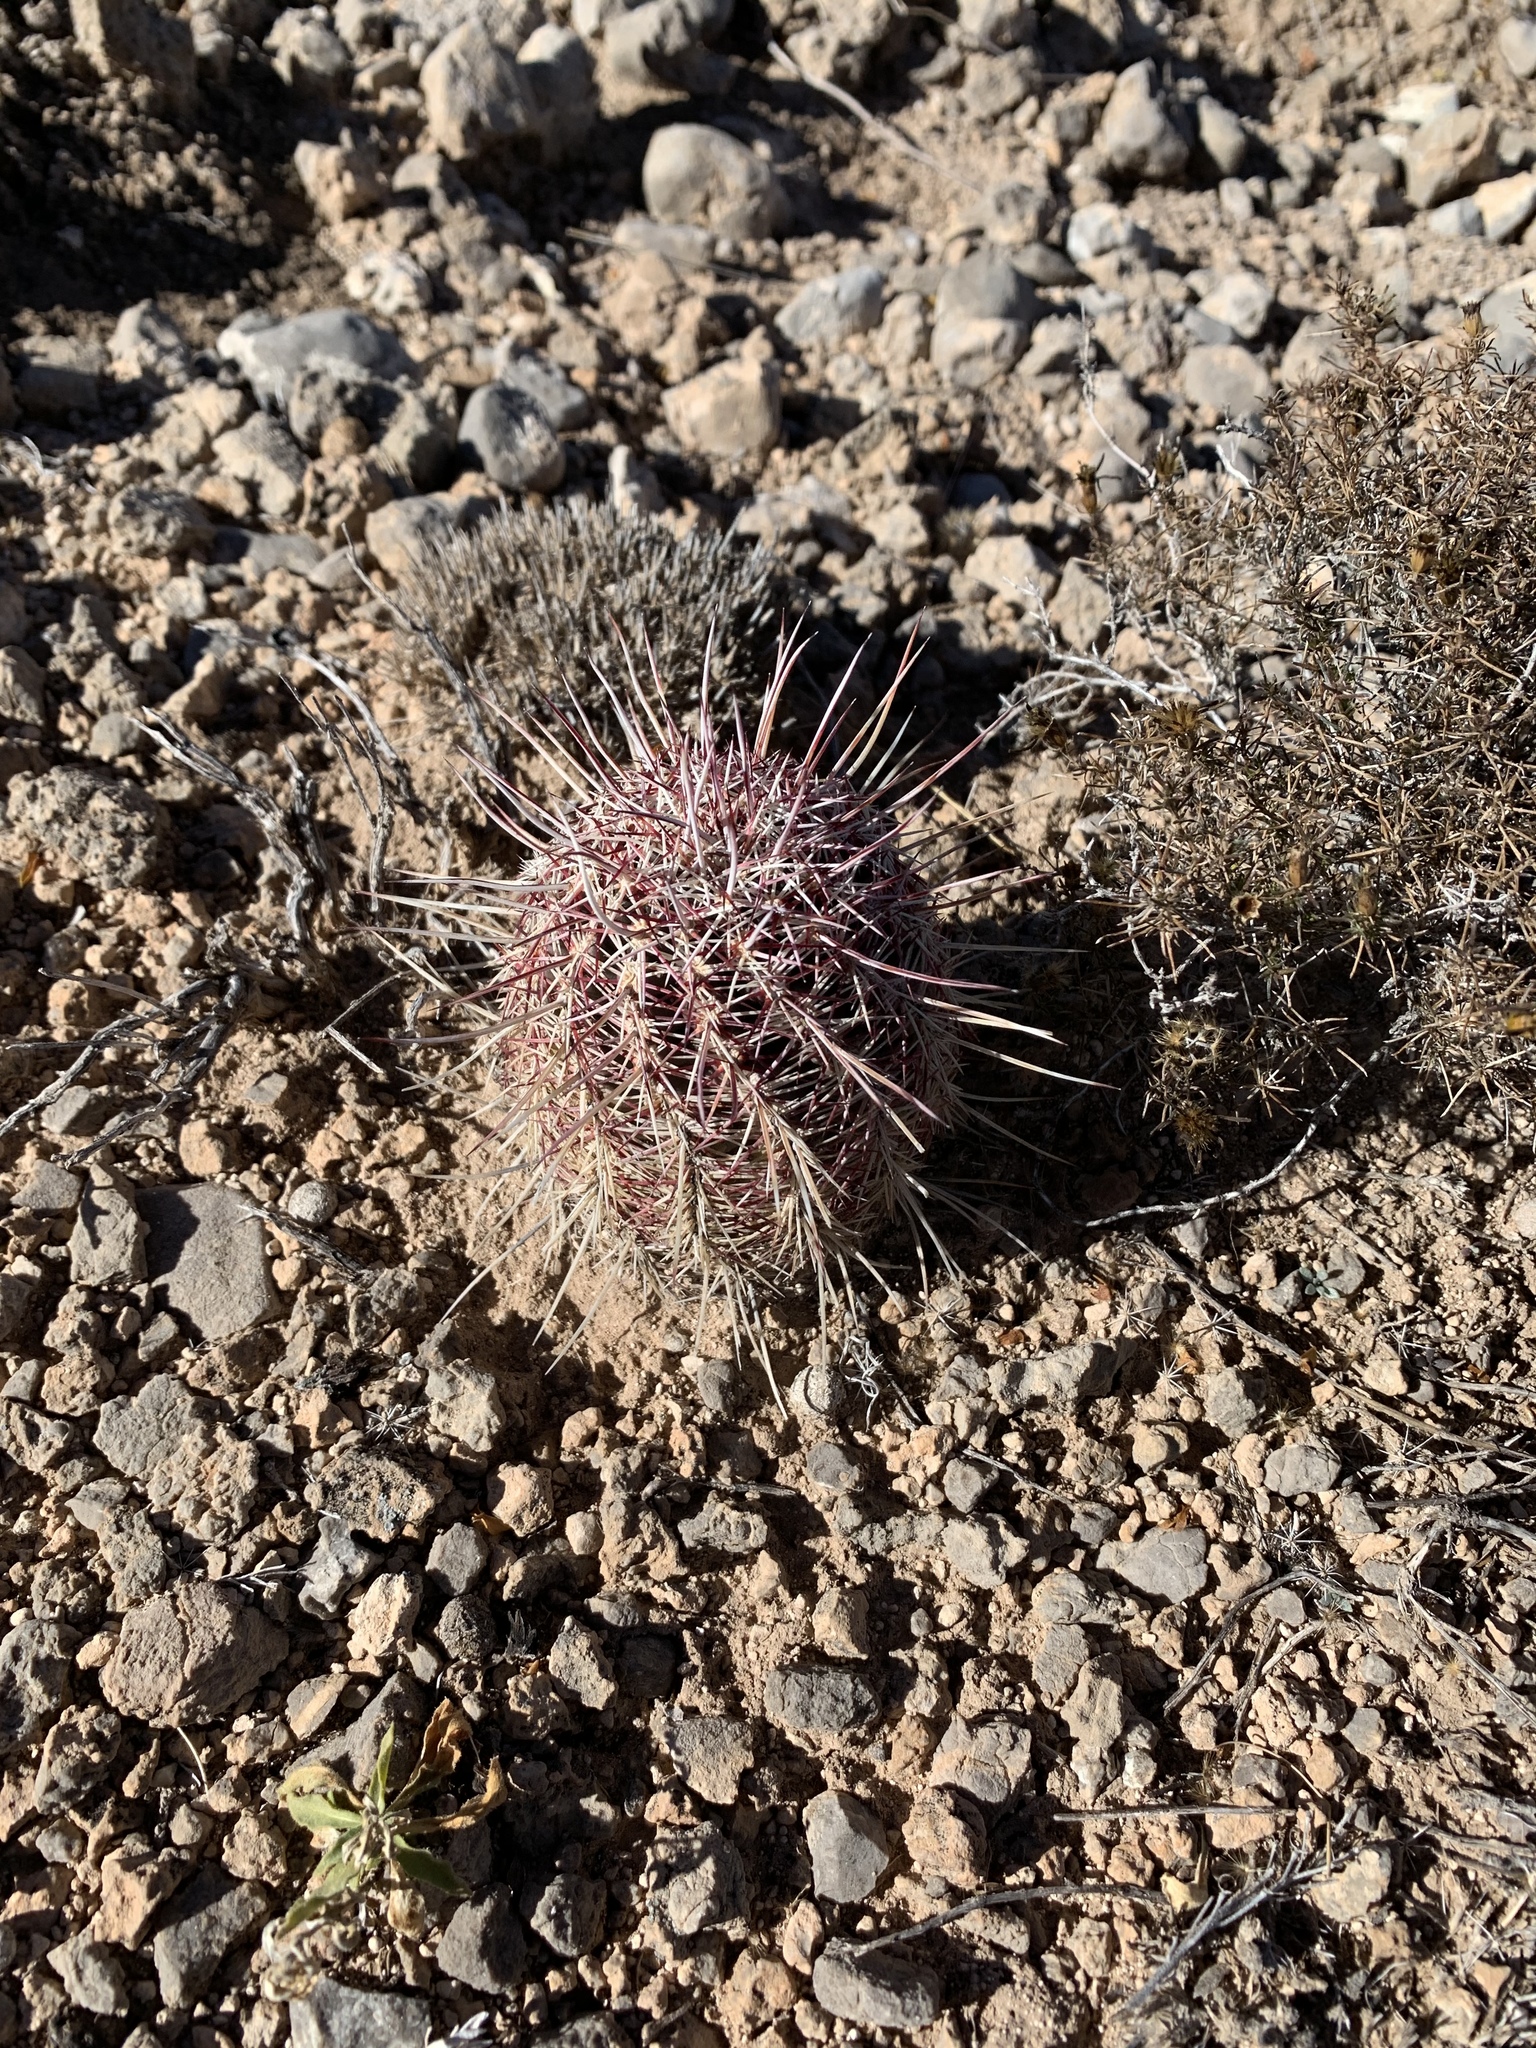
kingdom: Plantae
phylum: Tracheophyta
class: Magnoliopsida
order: Caryophyllales
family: Cactaceae
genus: Echinocereus
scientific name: Echinocereus viridiflorus
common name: Nylon hedgehog cactus
